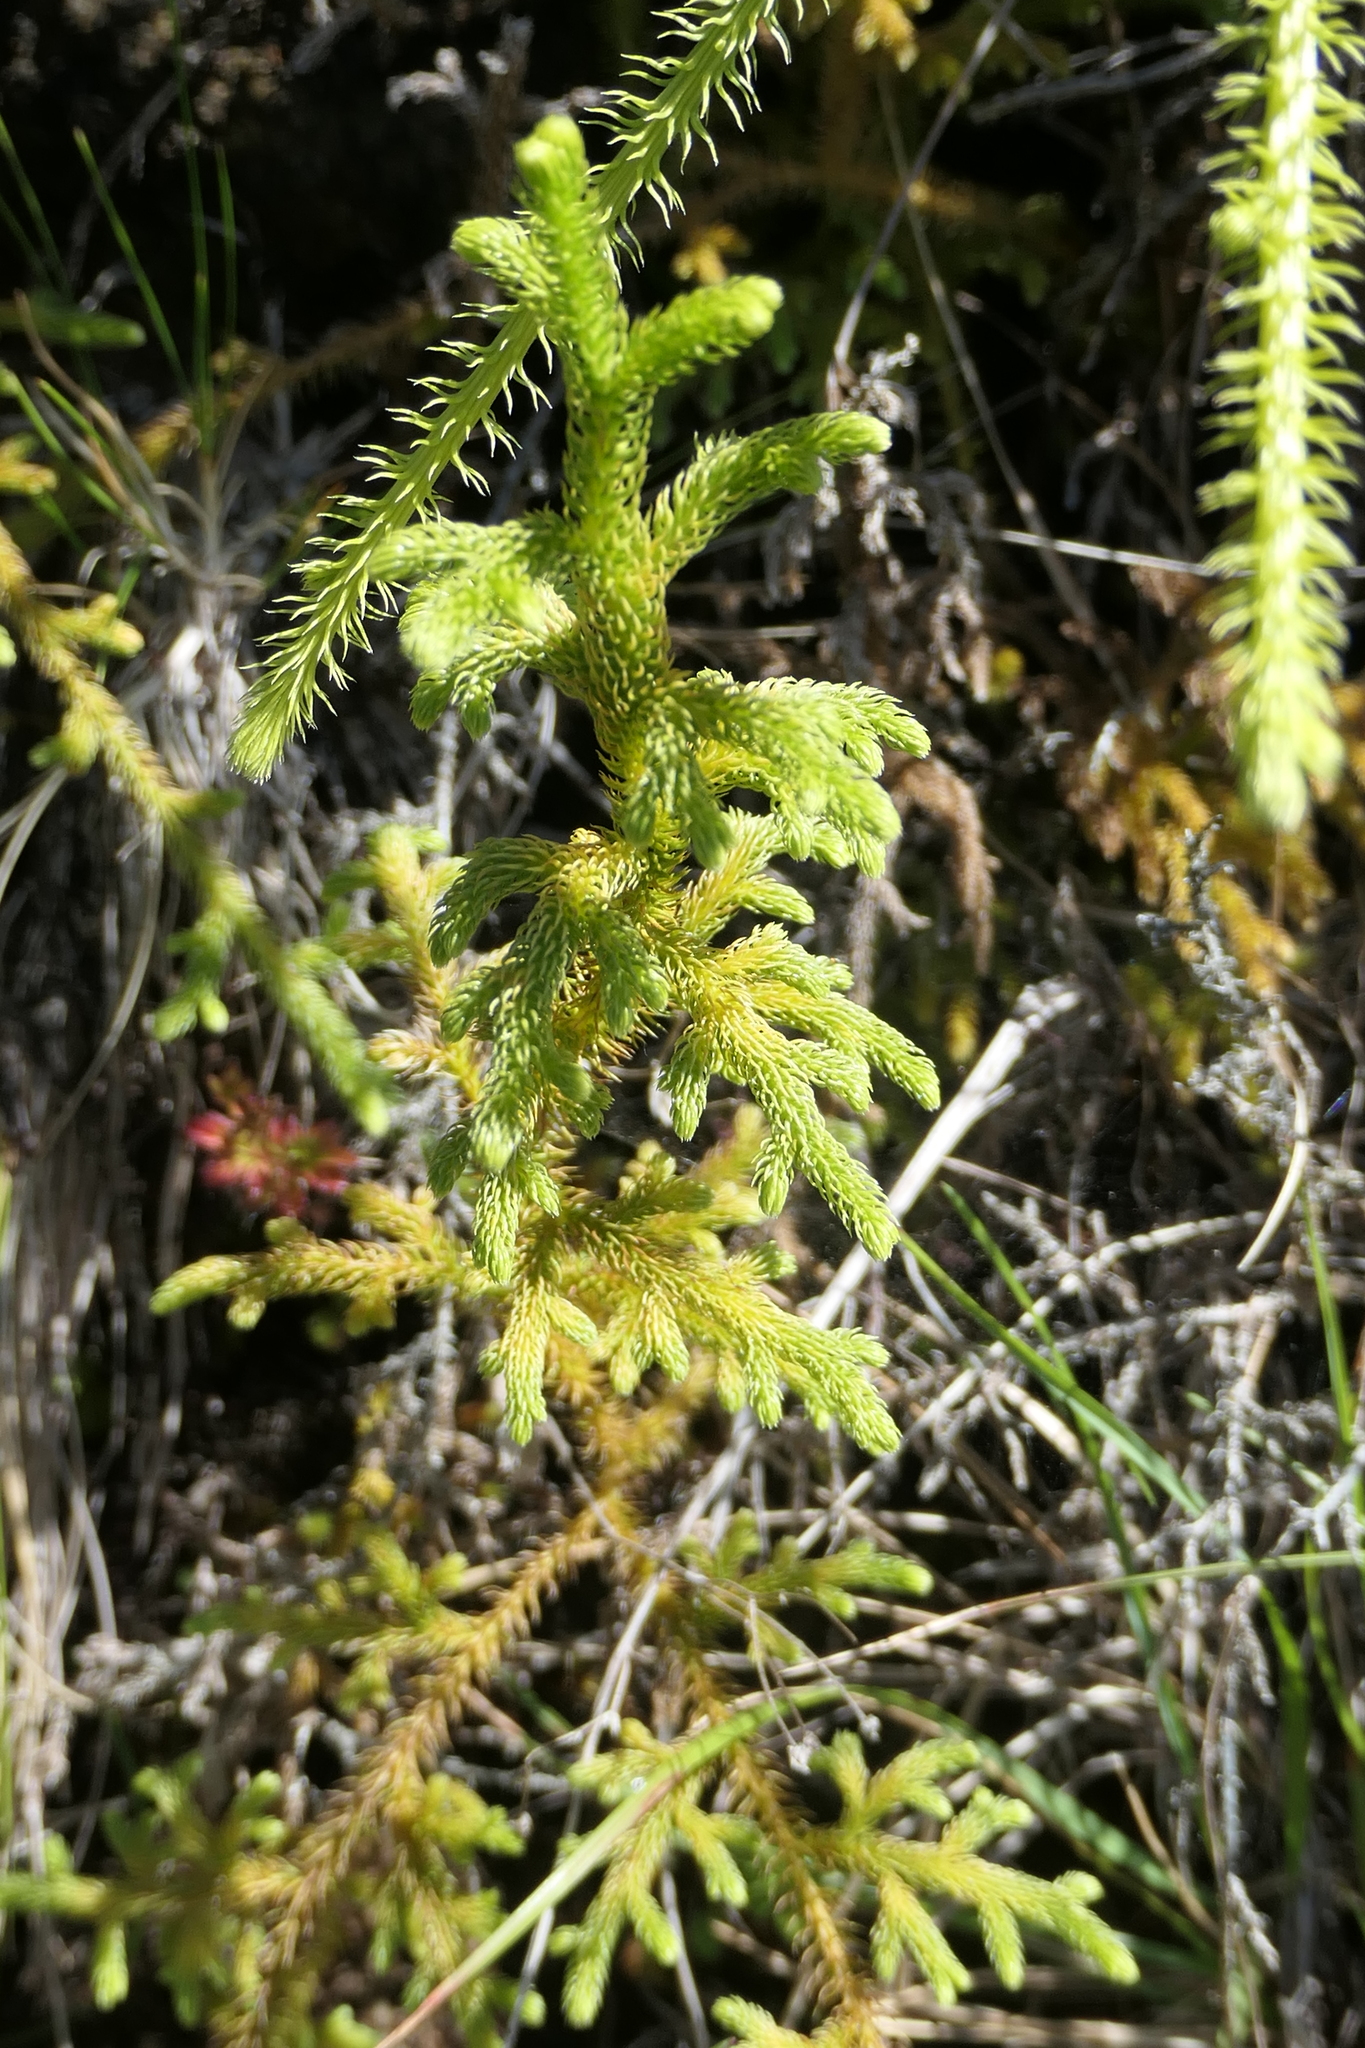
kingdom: Plantae
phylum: Tracheophyta
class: Lycopodiopsida
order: Lycopodiales
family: Lycopodiaceae
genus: Palhinhaea
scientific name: Palhinhaea cernua
